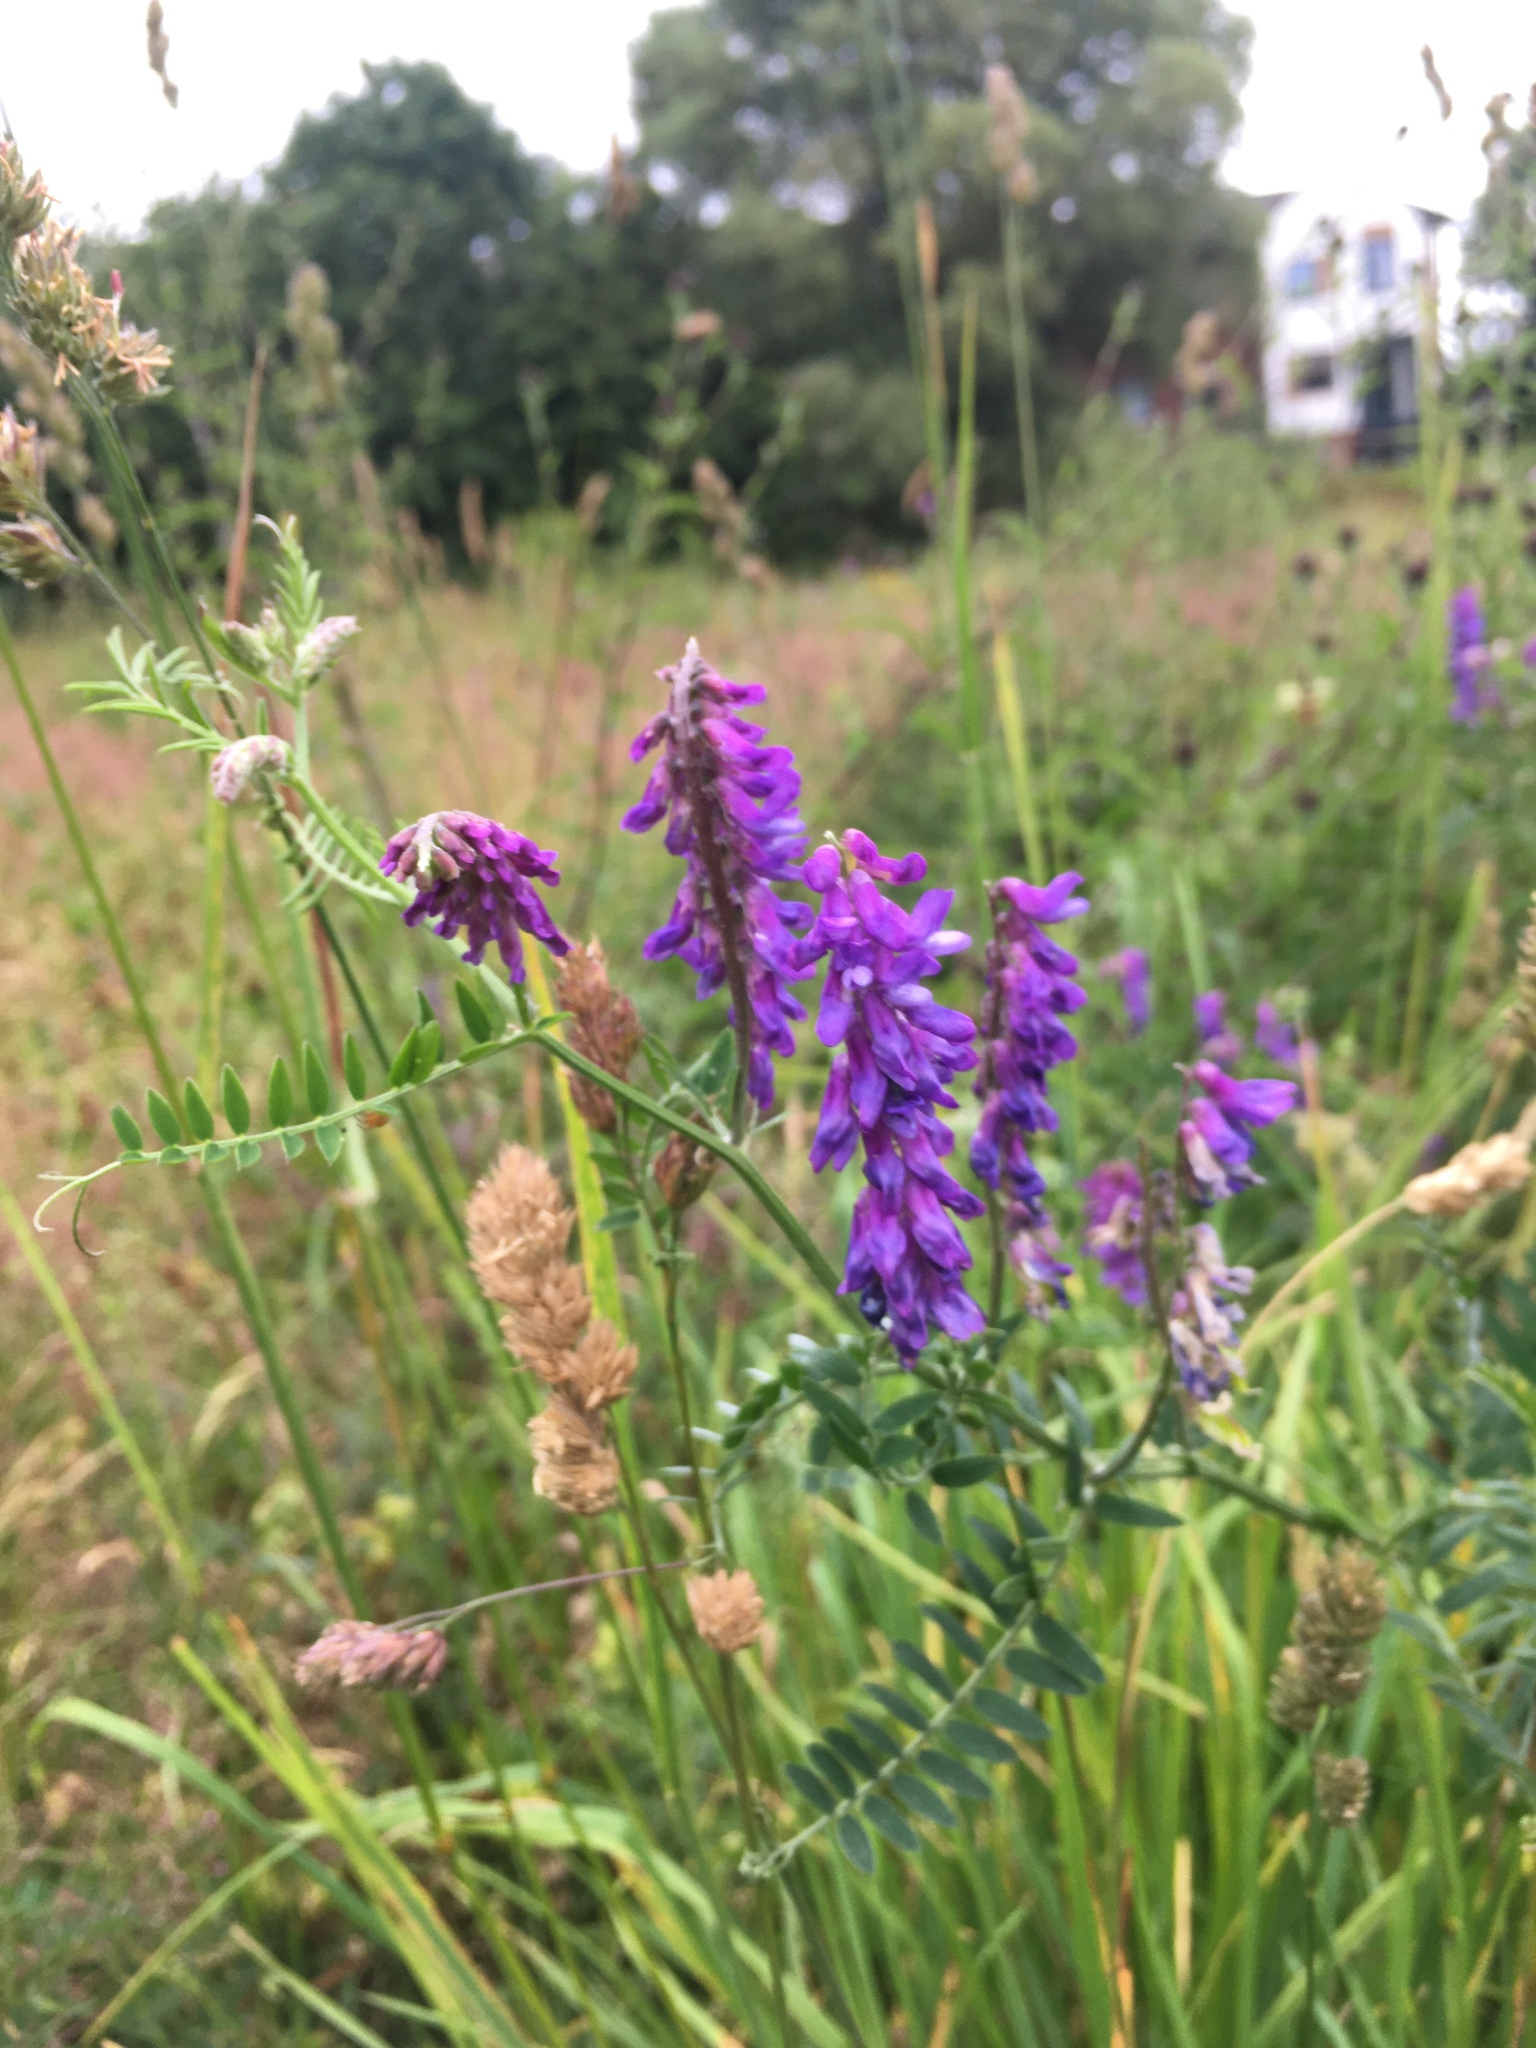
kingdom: Plantae
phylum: Tracheophyta
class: Magnoliopsida
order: Fabales
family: Fabaceae
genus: Vicia
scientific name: Vicia cracca
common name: Bird vetch
